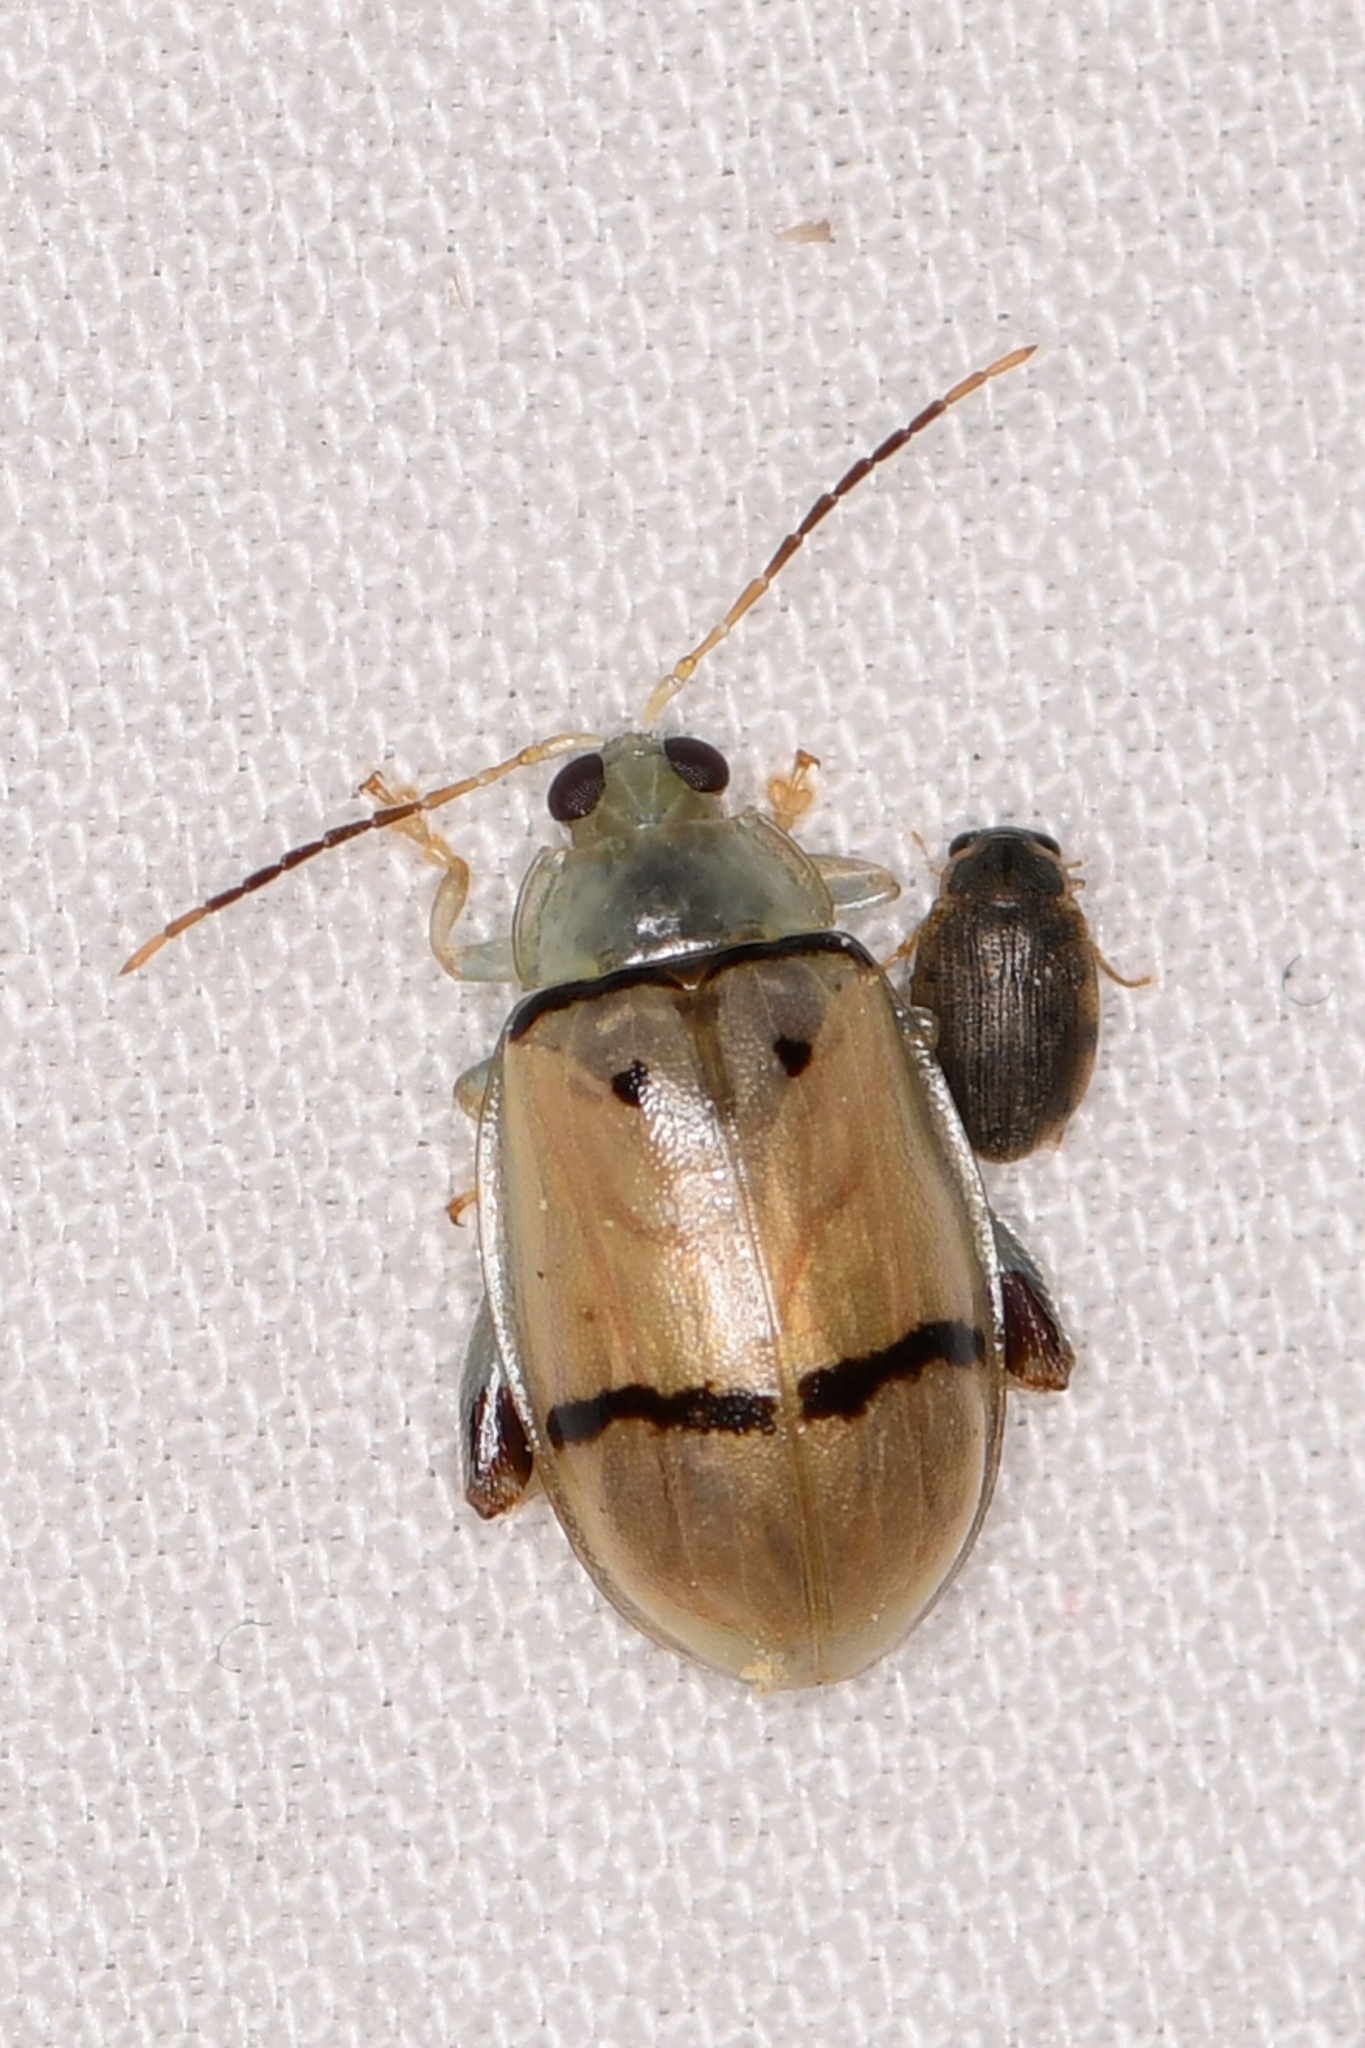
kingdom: Animalia
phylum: Arthropoda
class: Insecta
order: Coleoptera
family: Chrysomelidae
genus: Walterianella
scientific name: Walterianella
